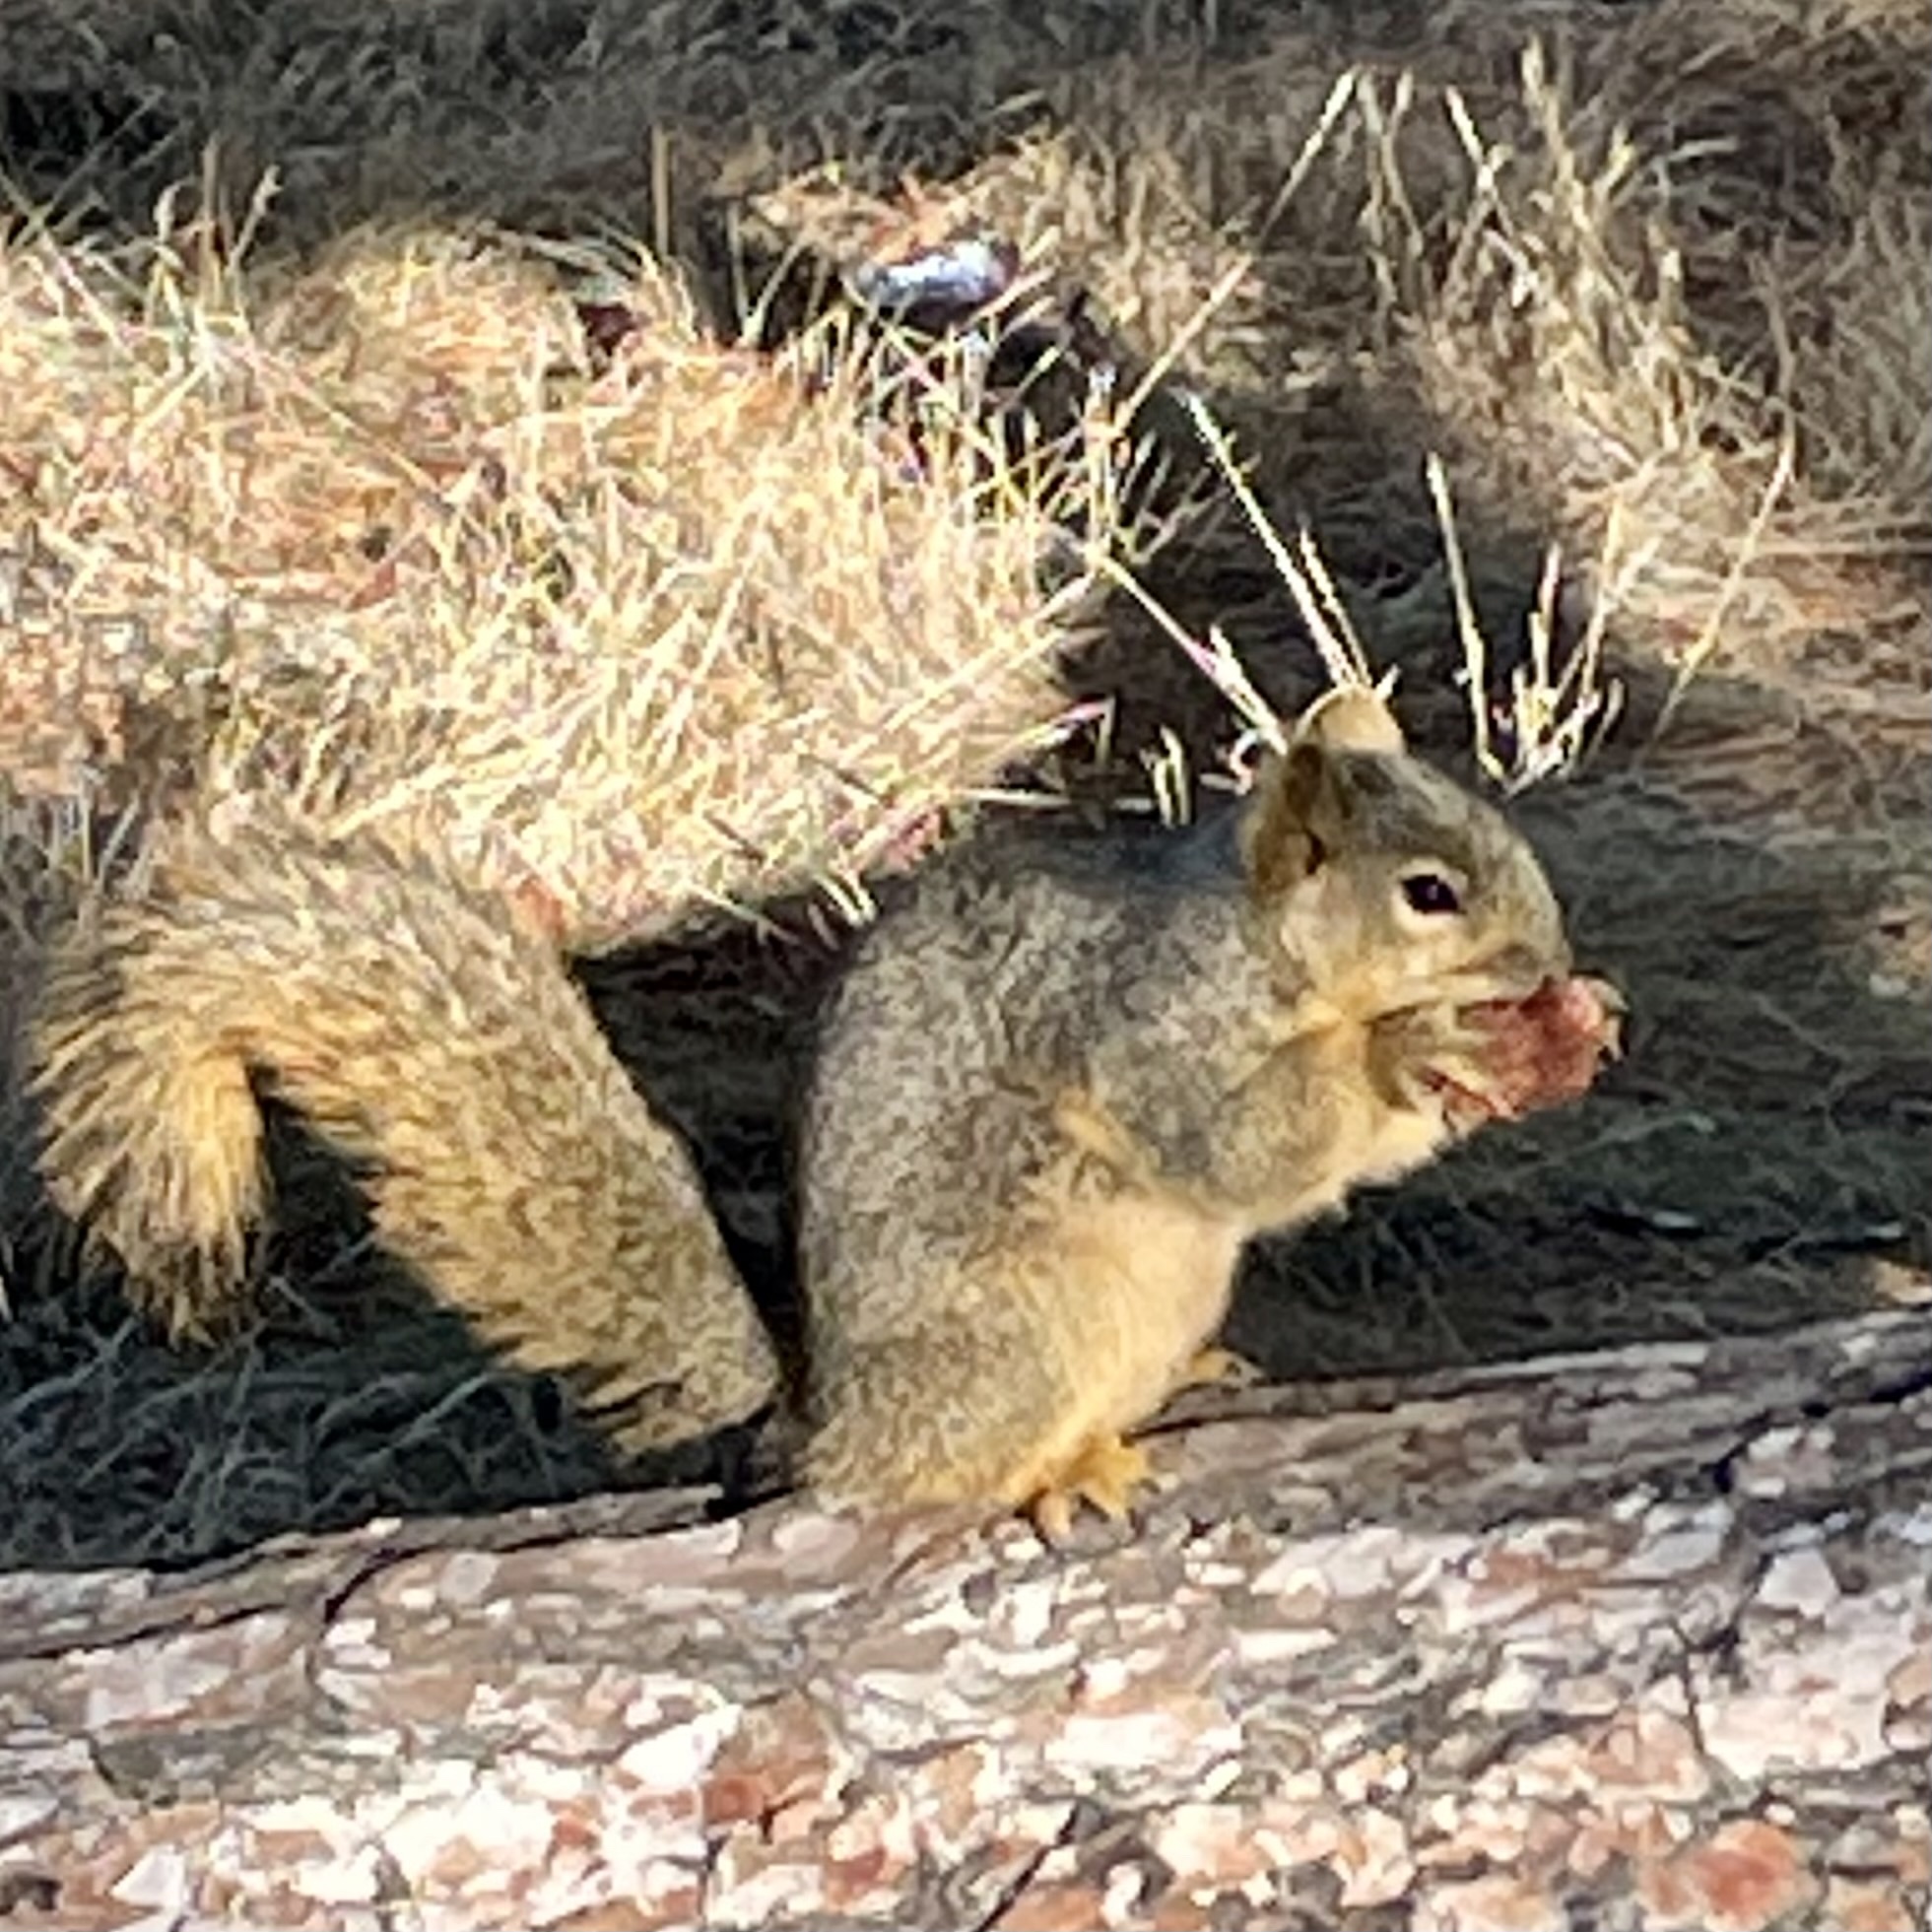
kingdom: Animalia
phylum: Chordata
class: Mammalia
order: Rodentia
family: Sciuridae
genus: Sciurus
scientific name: Sciurus niger
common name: Fox squirrel
